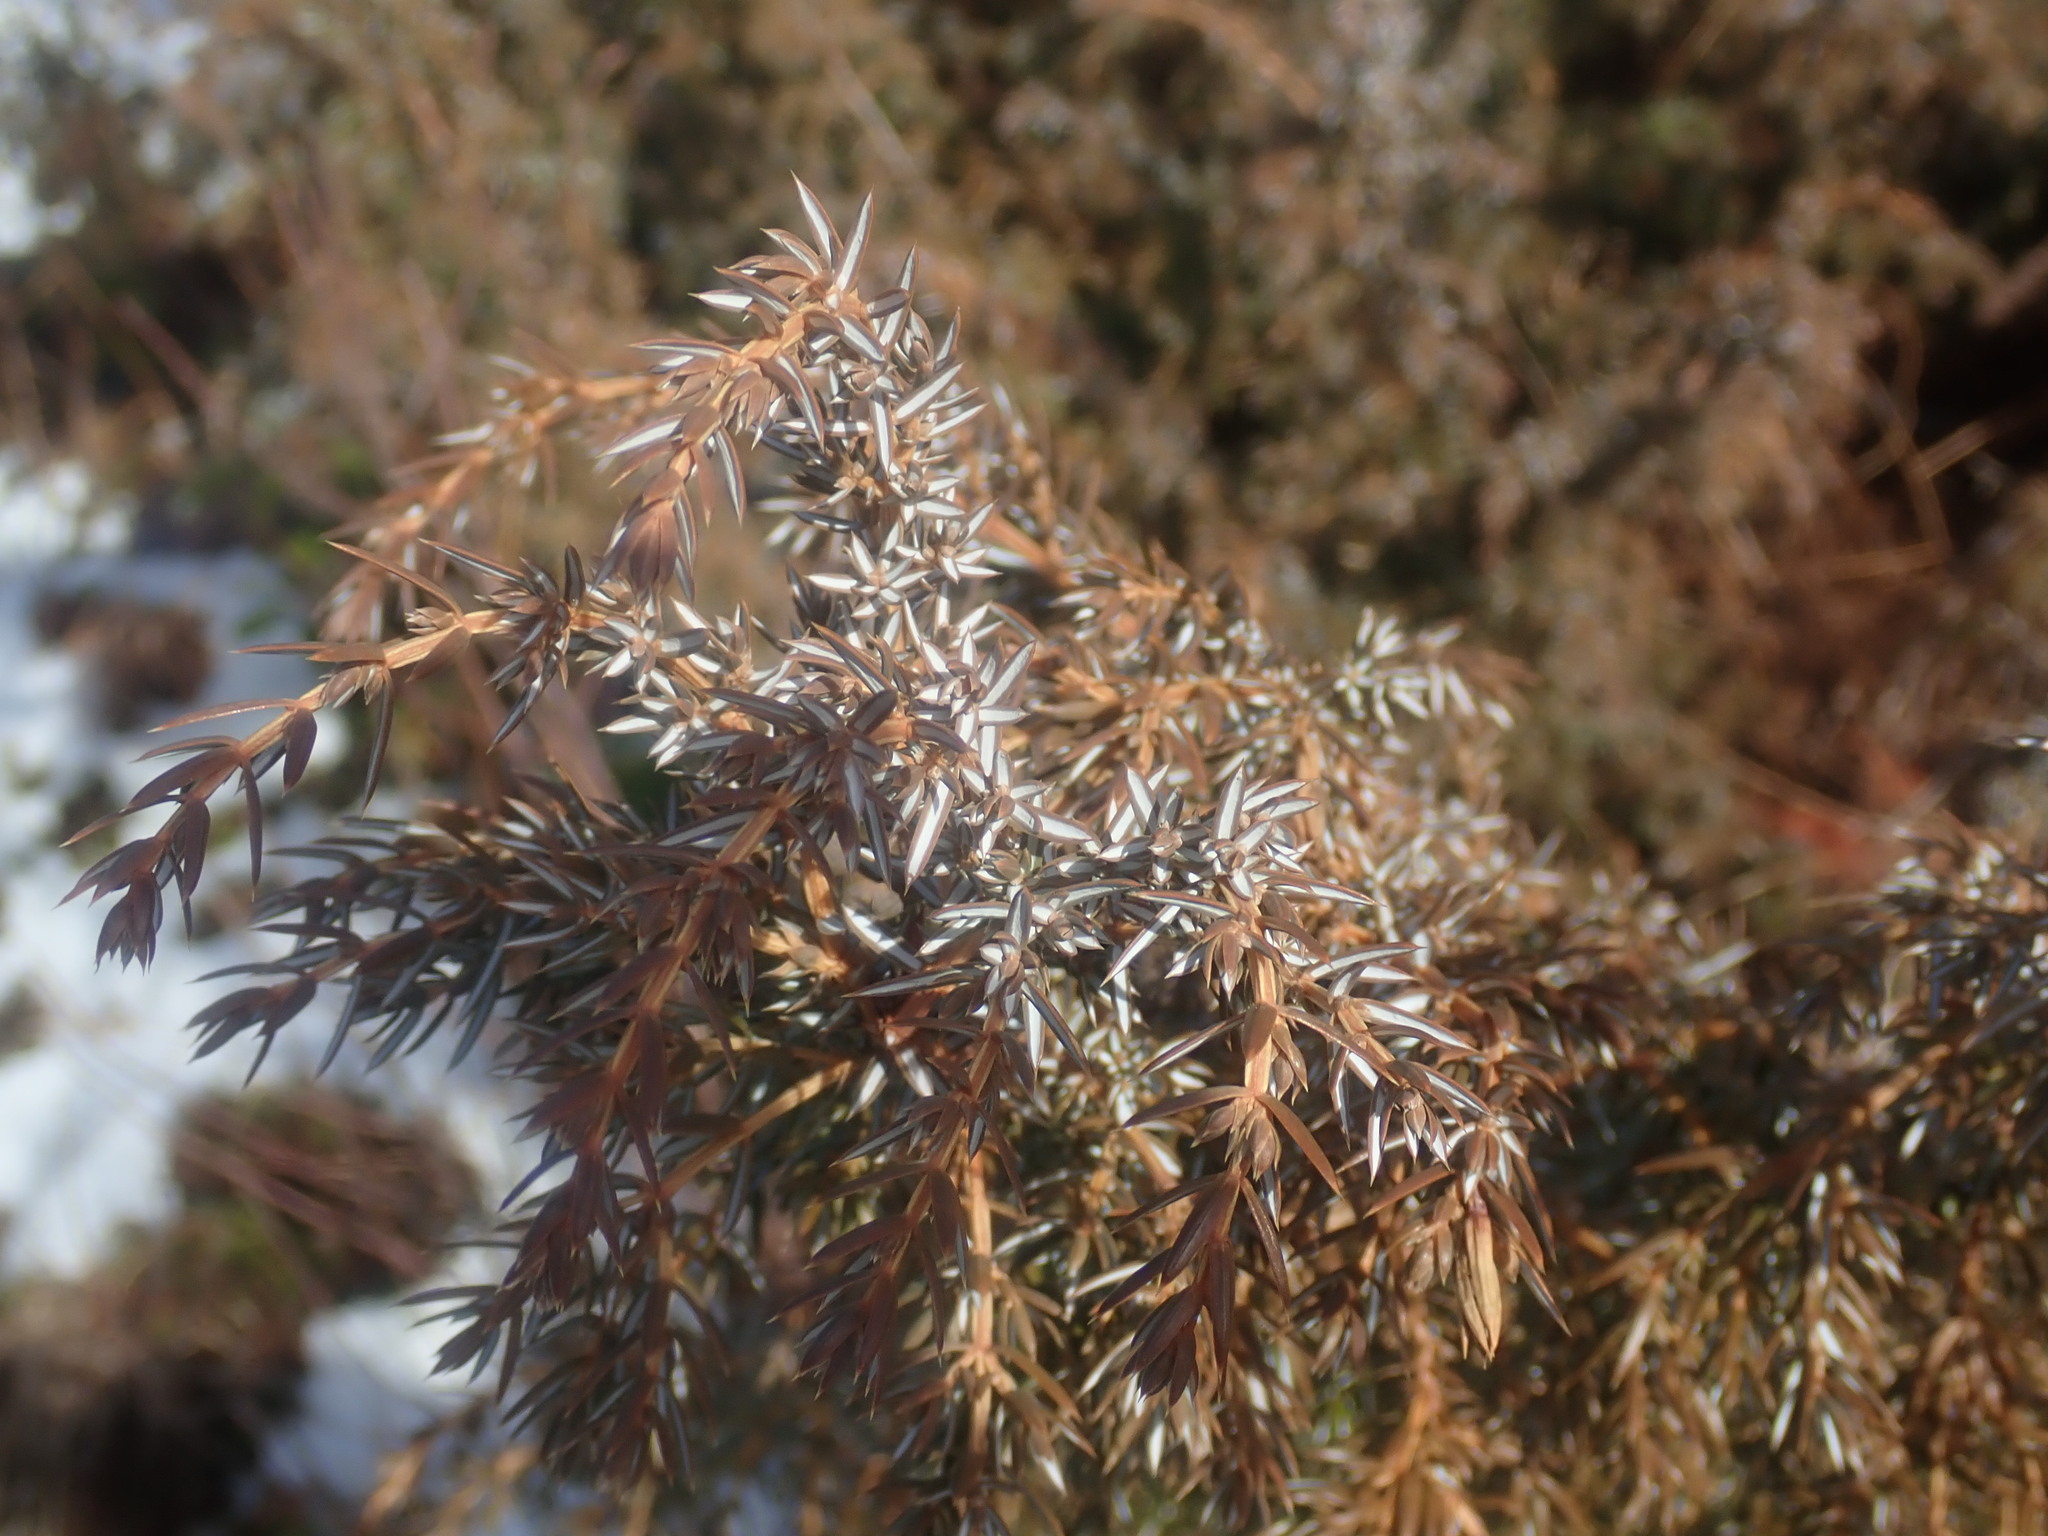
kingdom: Plantae
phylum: Tracheophyta
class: Pinopsida
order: Pinales
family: Cupressaceae
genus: Juniperus
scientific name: Juniperus communis
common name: Common juniper
